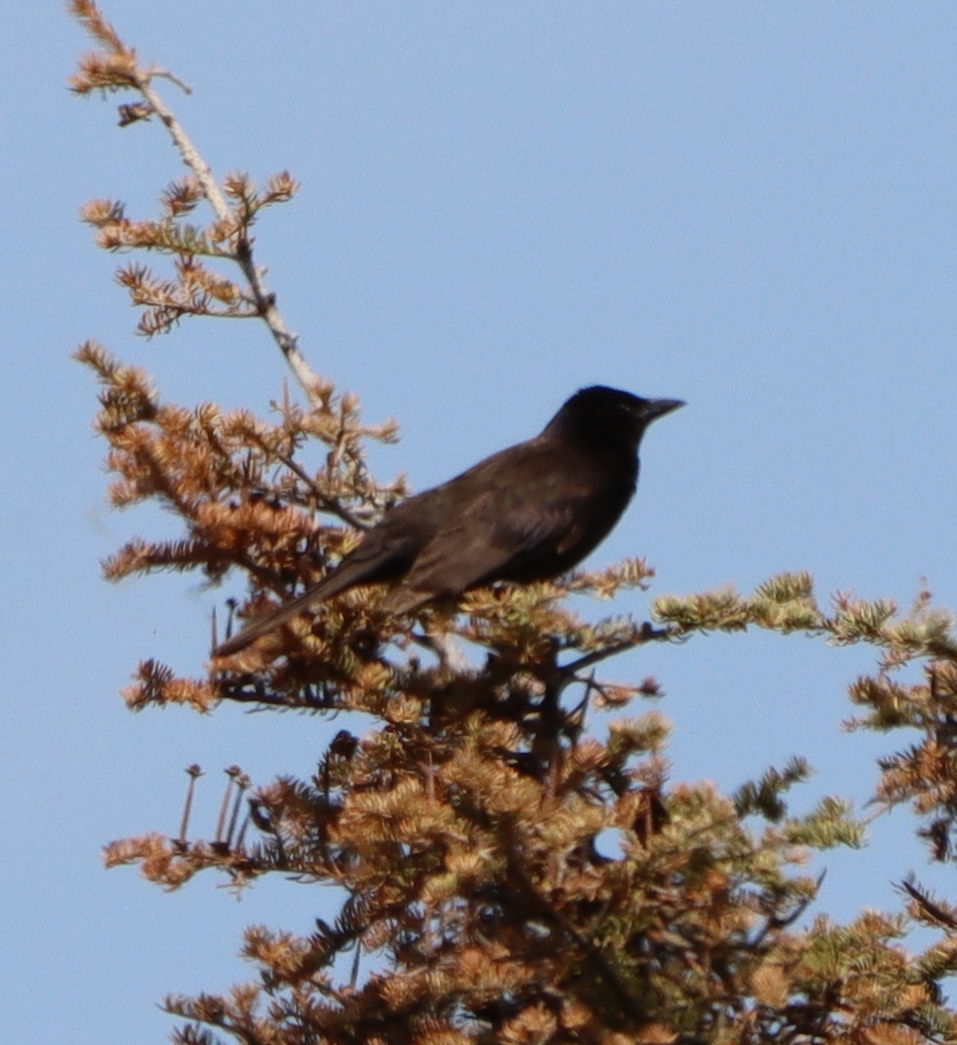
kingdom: Animalia
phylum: Chordata
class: Aves
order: Passeriformes
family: Corvidae
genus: Corvus
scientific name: Corvus brachyrhynchos
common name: American crow
